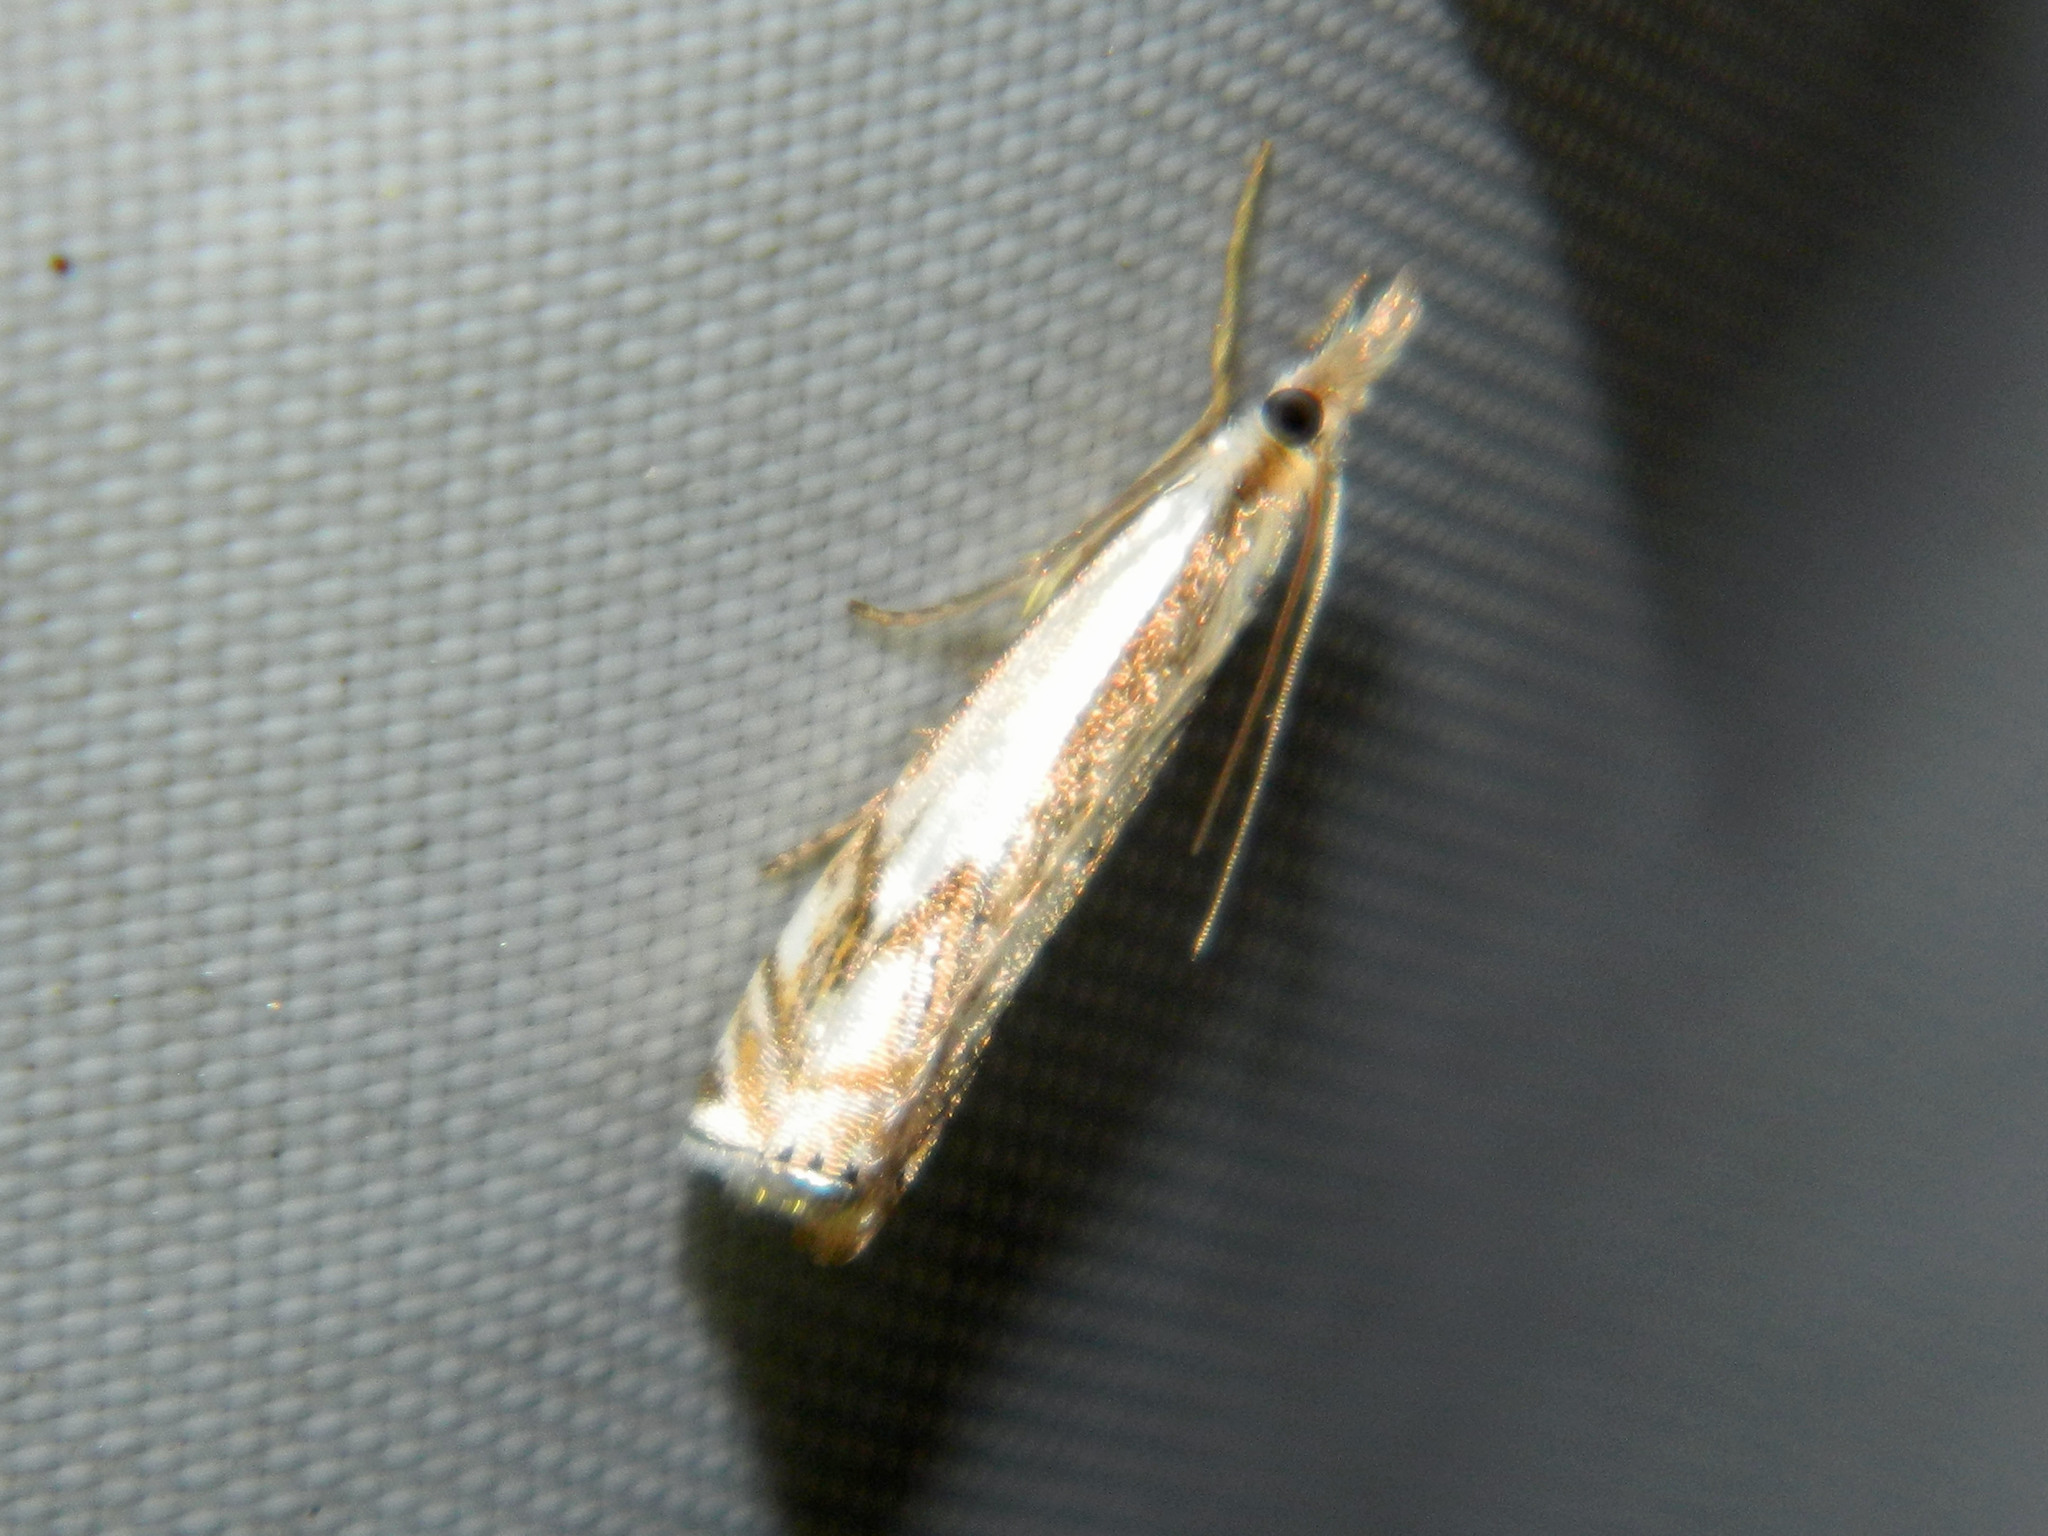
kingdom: Animalia
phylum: Arthropoda
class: Insecta
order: Lepidoptera
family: Crambidae
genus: Crambus
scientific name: Crambus agitatellus
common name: Double-banded grass-veneer
